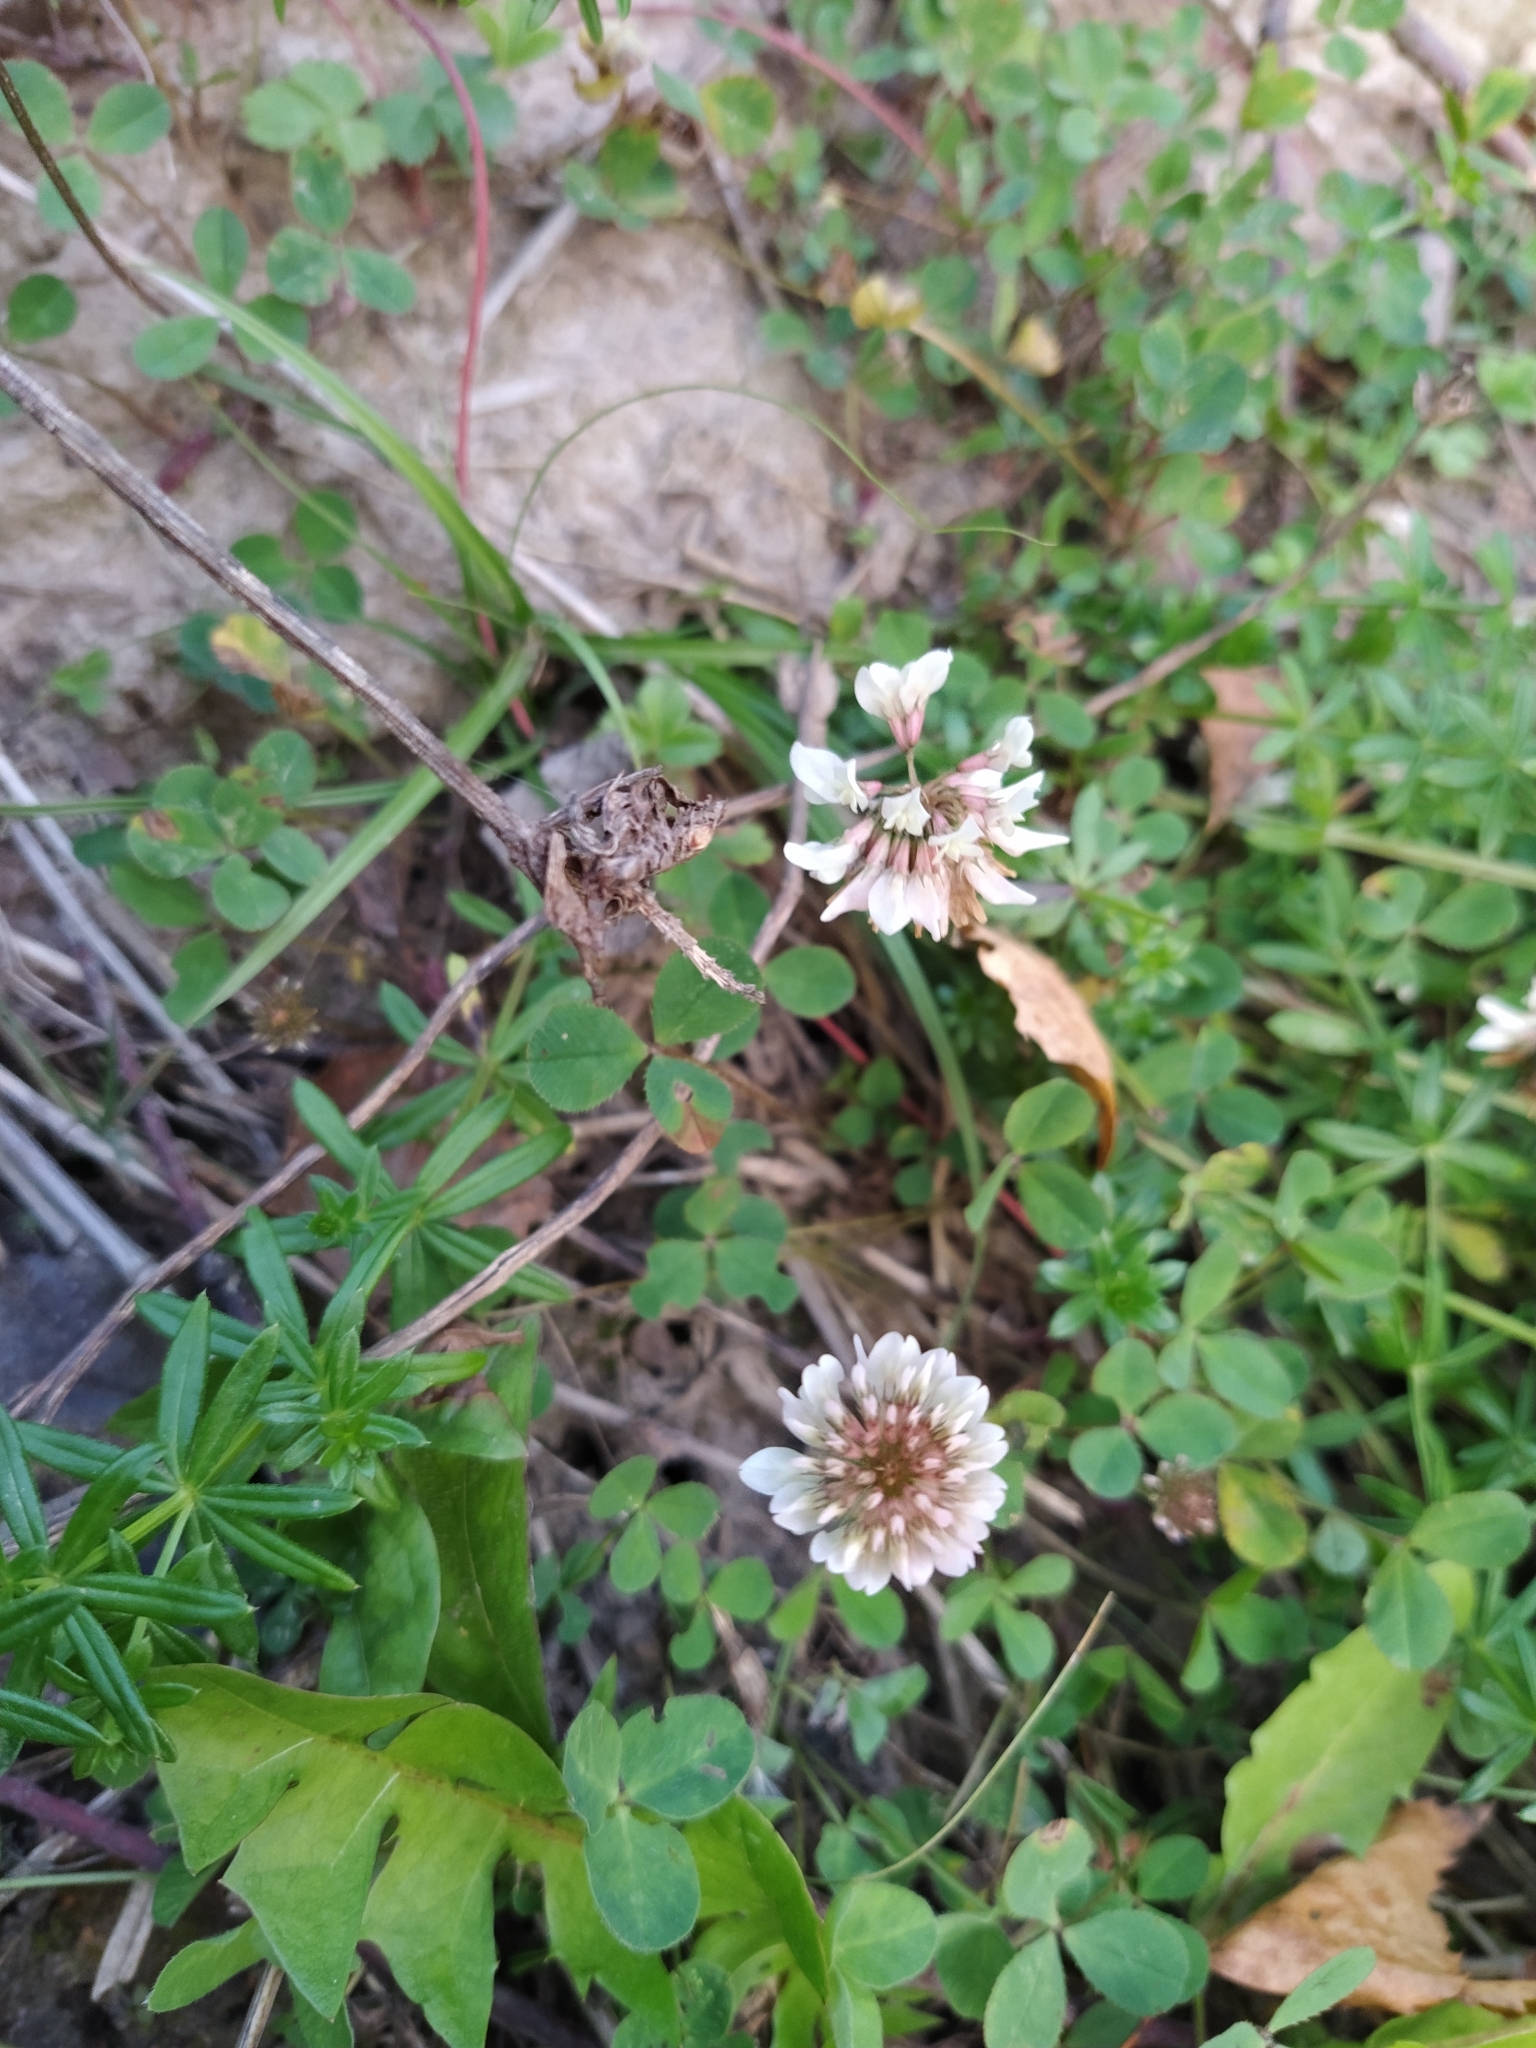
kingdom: Plantae
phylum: Tracheophyta
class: Magnoliopsida
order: Fabales
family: Fabaceae
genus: Trifolium
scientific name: Trifolium repens
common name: White clover
